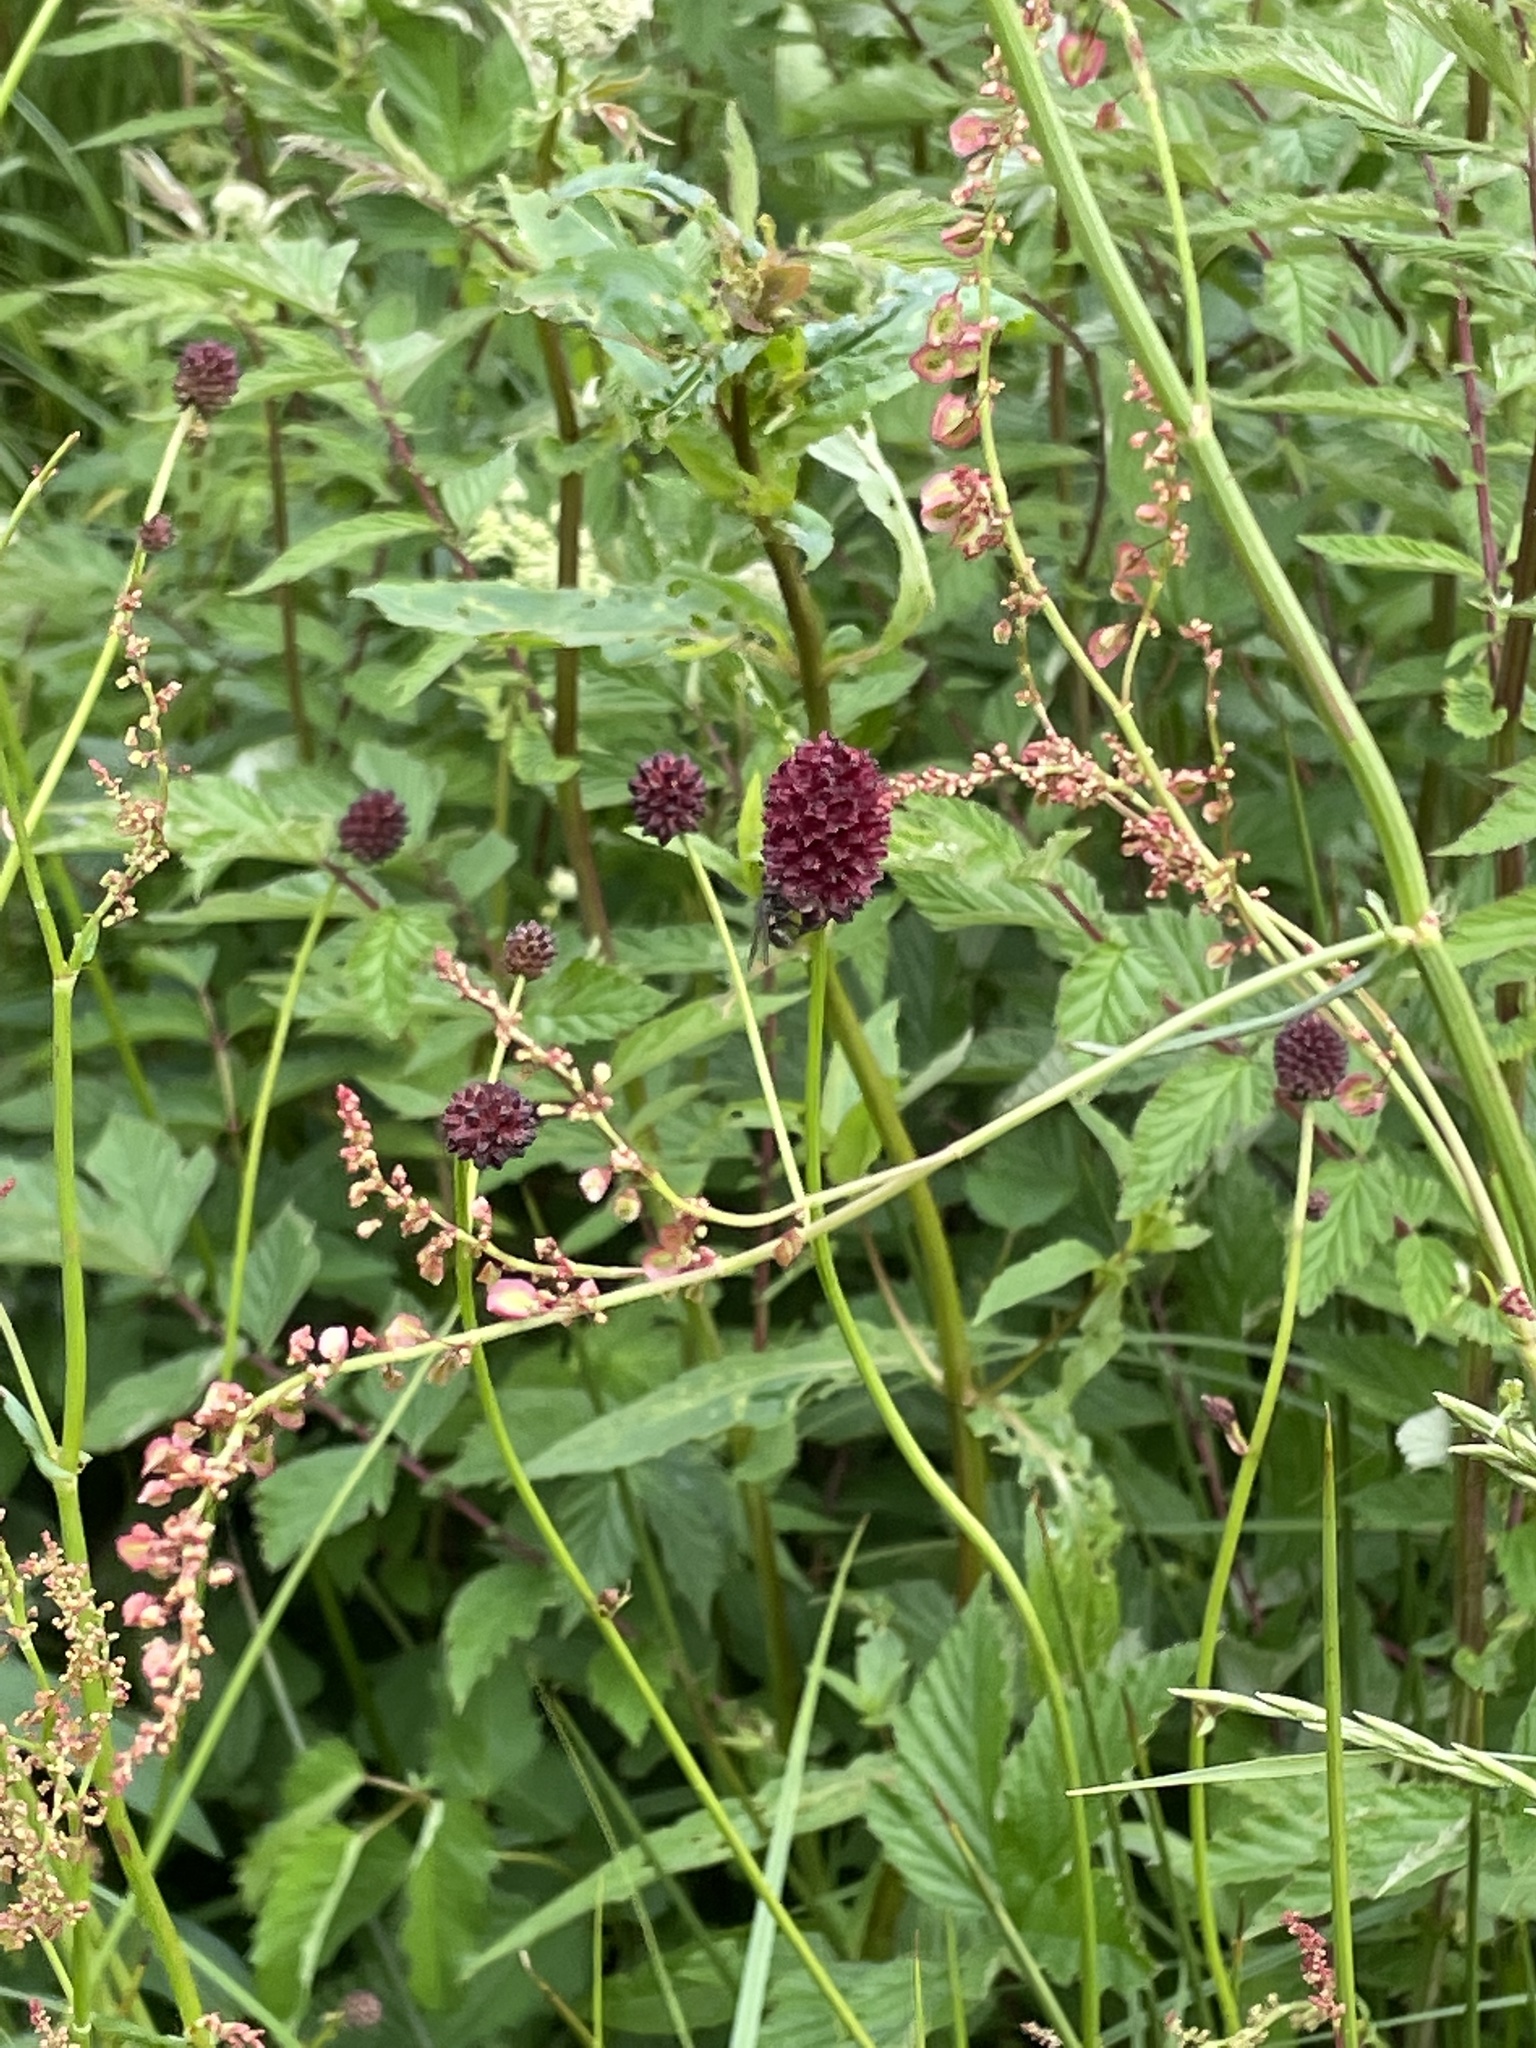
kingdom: Plantae
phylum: Tracheophyta
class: Magnoliopsida
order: Rosales
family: Rosaceae
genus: Sanguisorba
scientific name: Sanguisorba officinalis
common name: Great burnet
